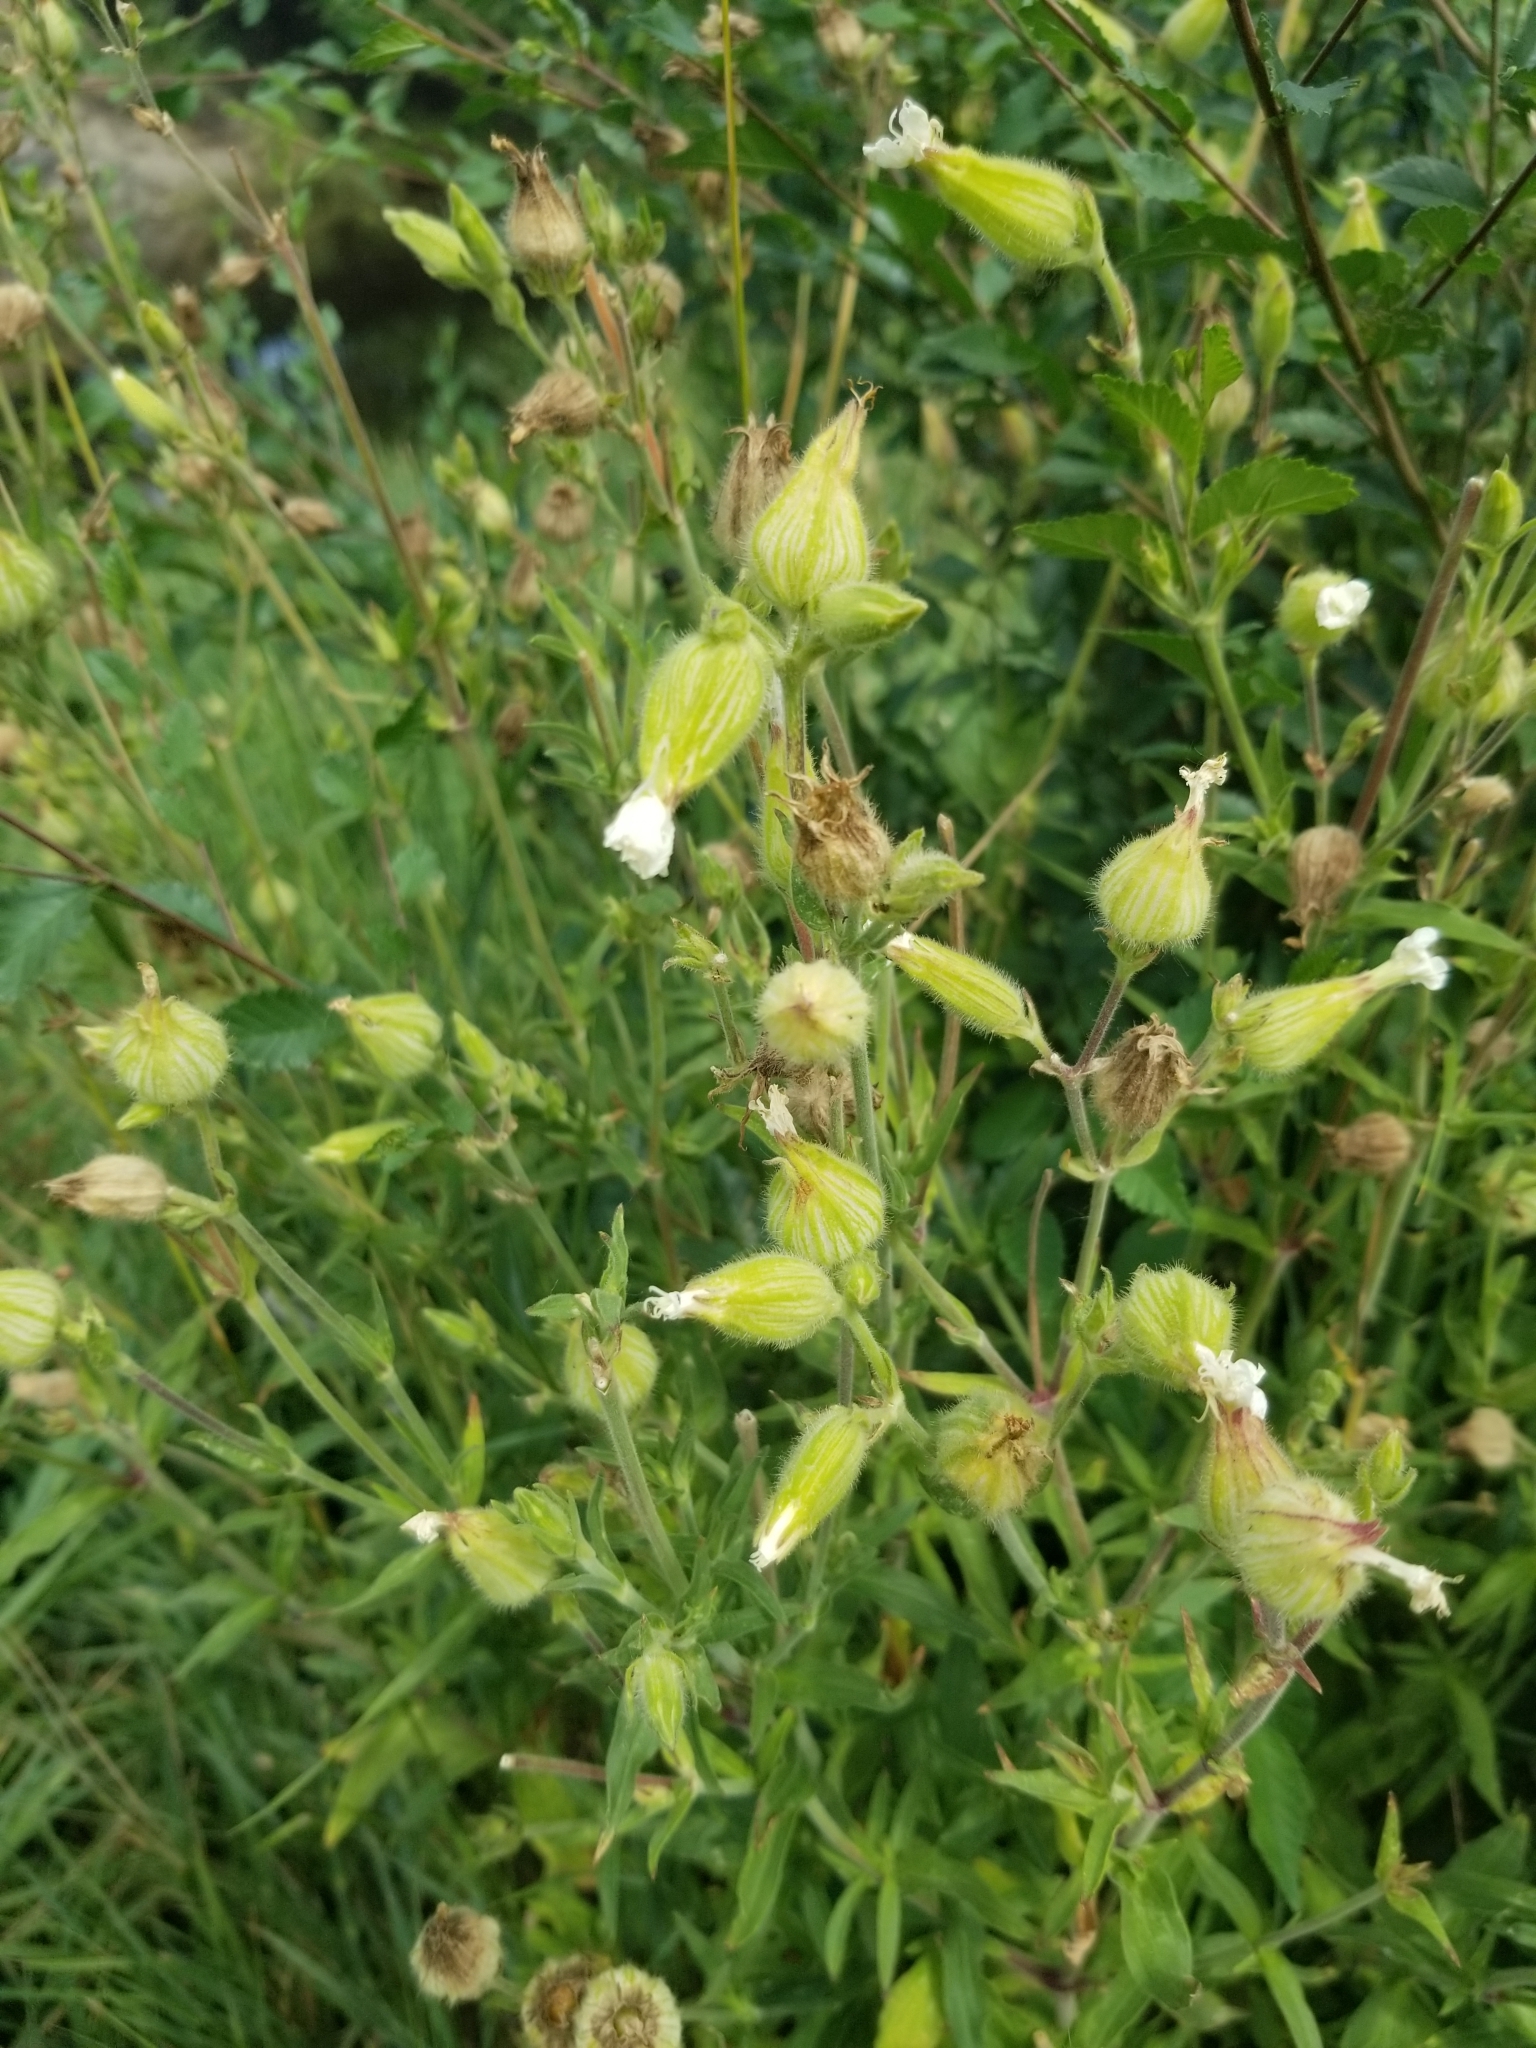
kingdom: Plantae
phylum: Tracheophyta
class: Magnoliopsida
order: Caryophyllales
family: Caryophyllaceae
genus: Silene
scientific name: Silene latifolia
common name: White campion
